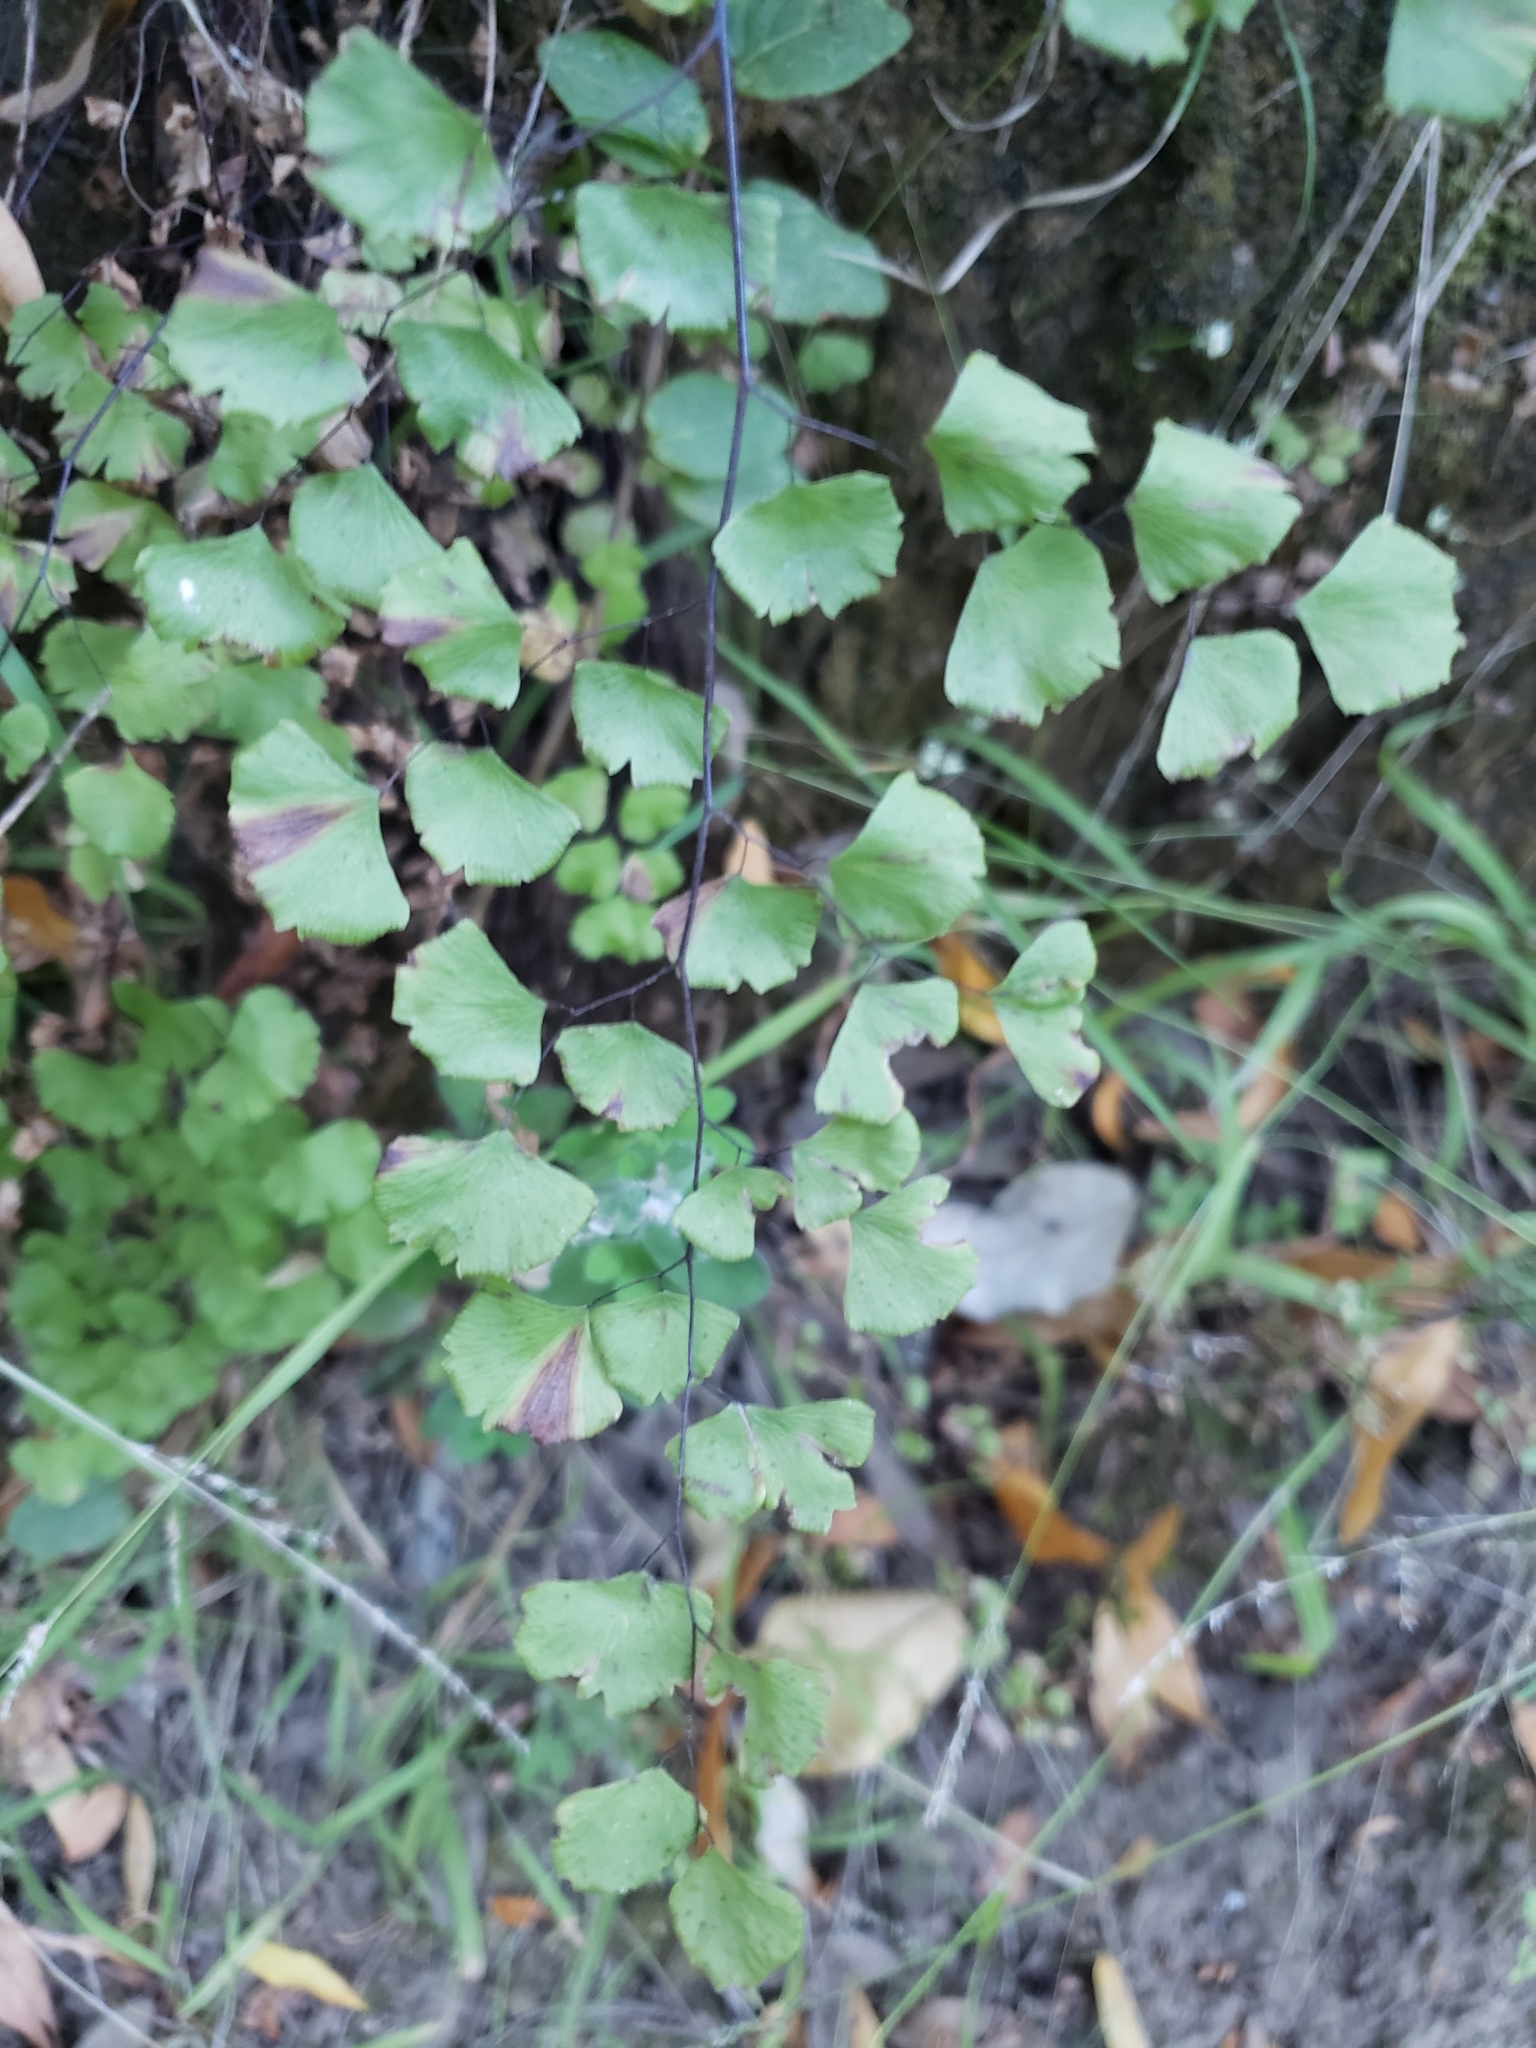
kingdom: Plantae
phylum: Tracheophyta
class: Polypodiopsida
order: Polypodiales
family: Pteridaceae
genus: Adiantum
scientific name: Adiantum jordanii
